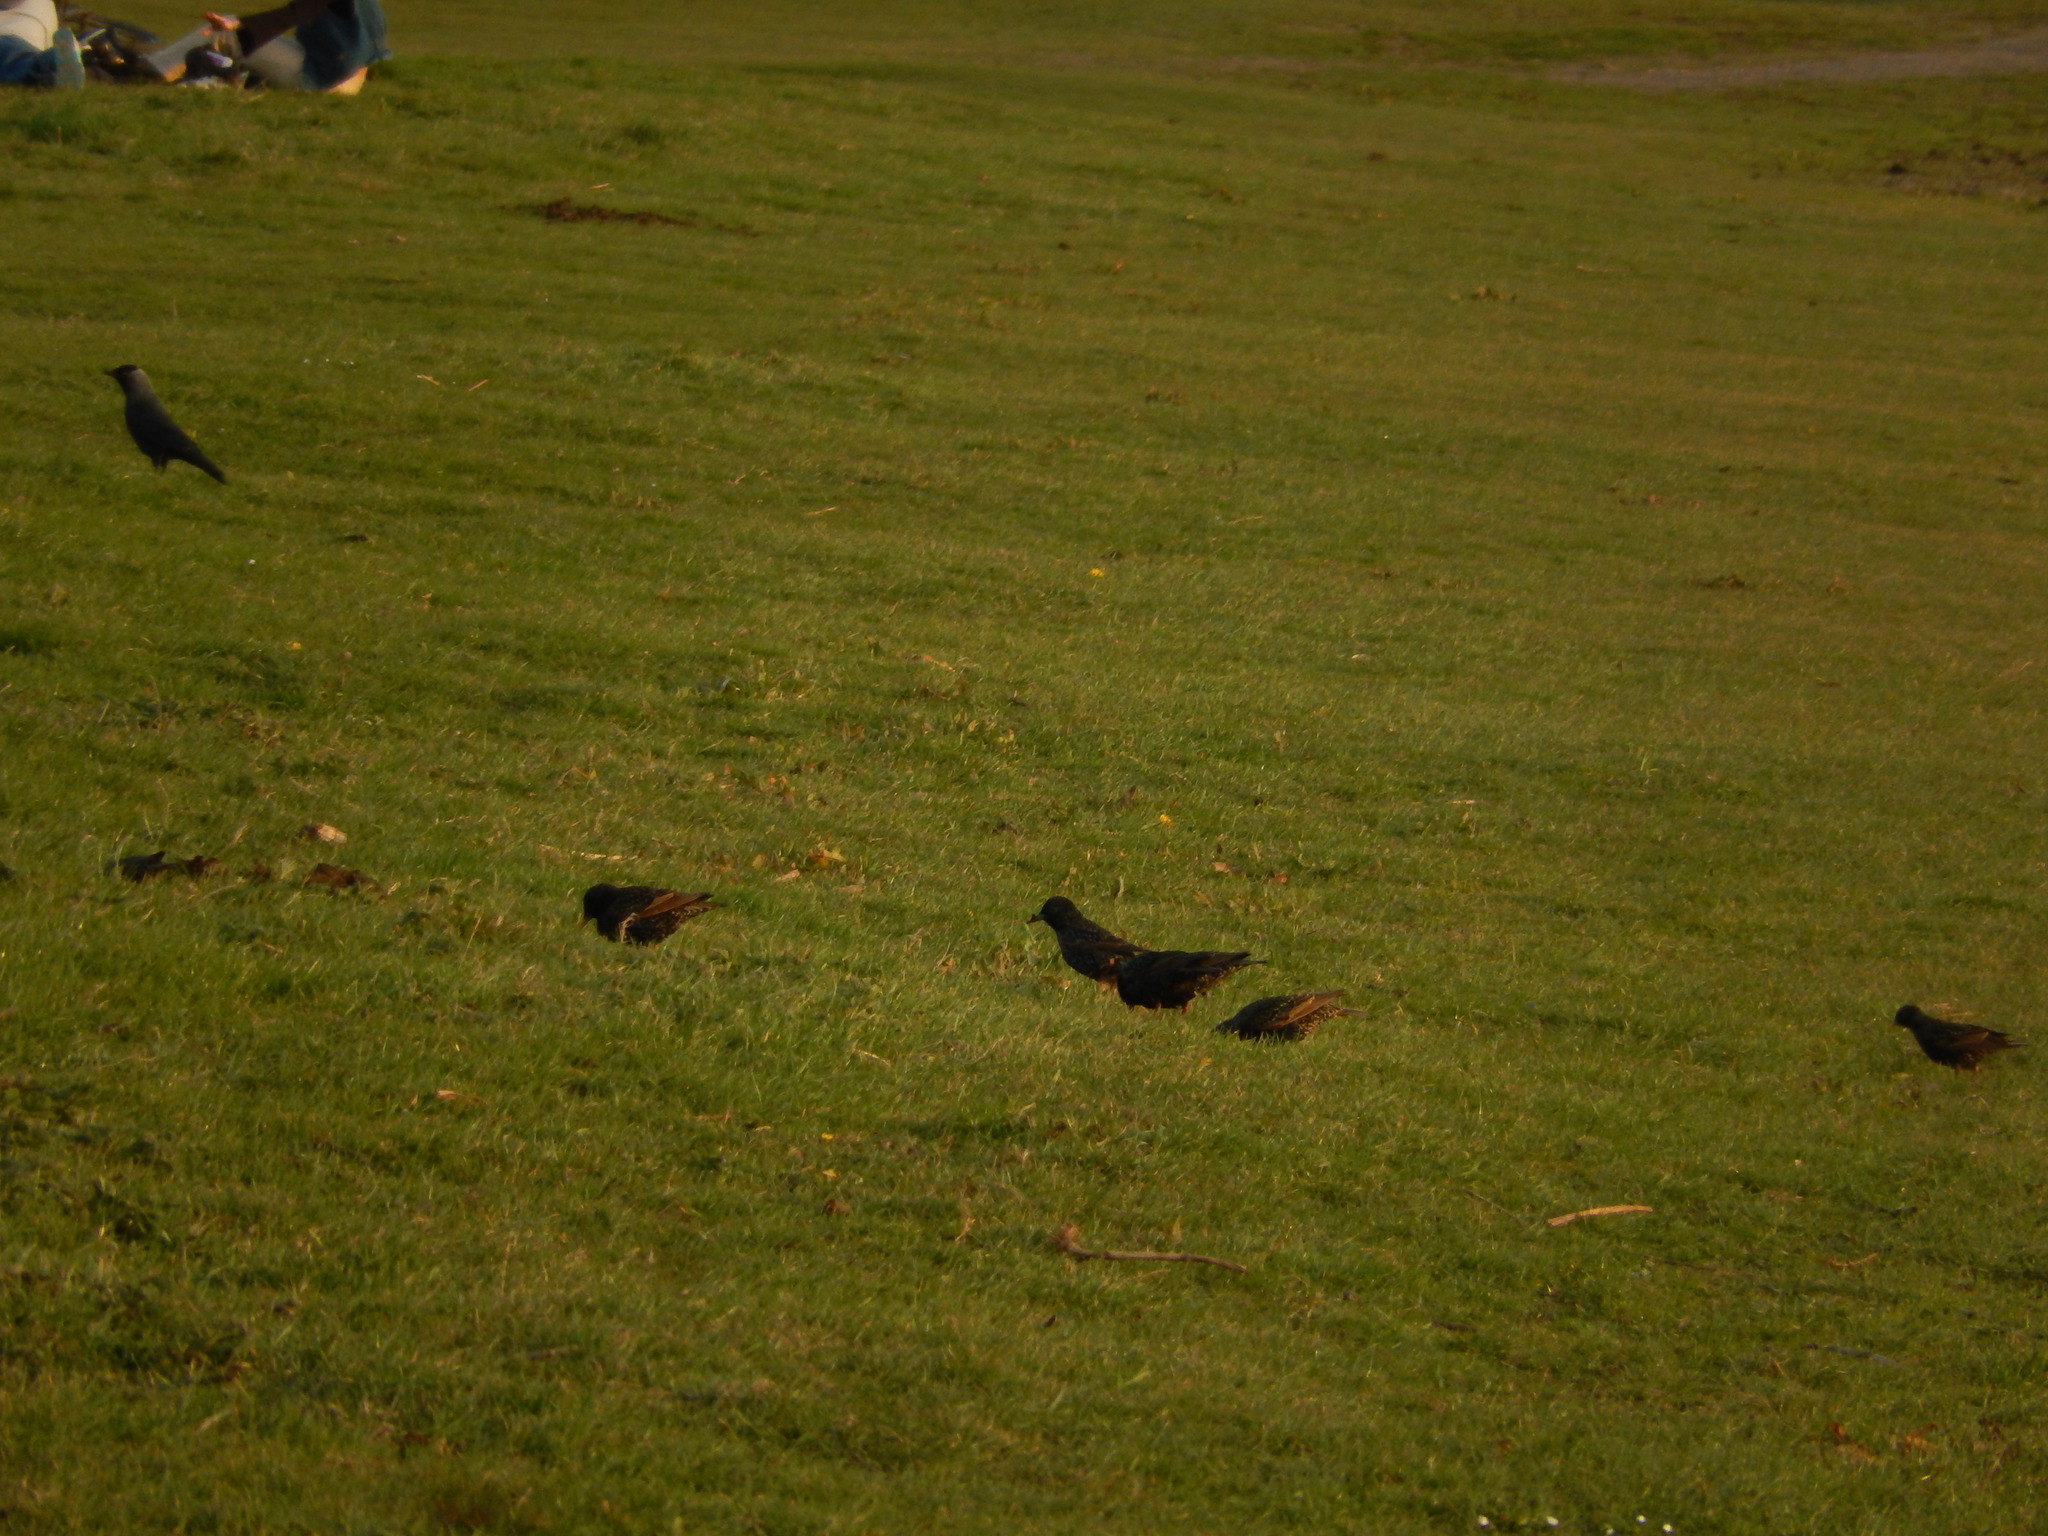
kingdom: Animalia
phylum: Chordata
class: Aves
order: Passeriformes
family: Sturnidae
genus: Sturnus
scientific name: Sturnus vulgaris
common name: Common starling
